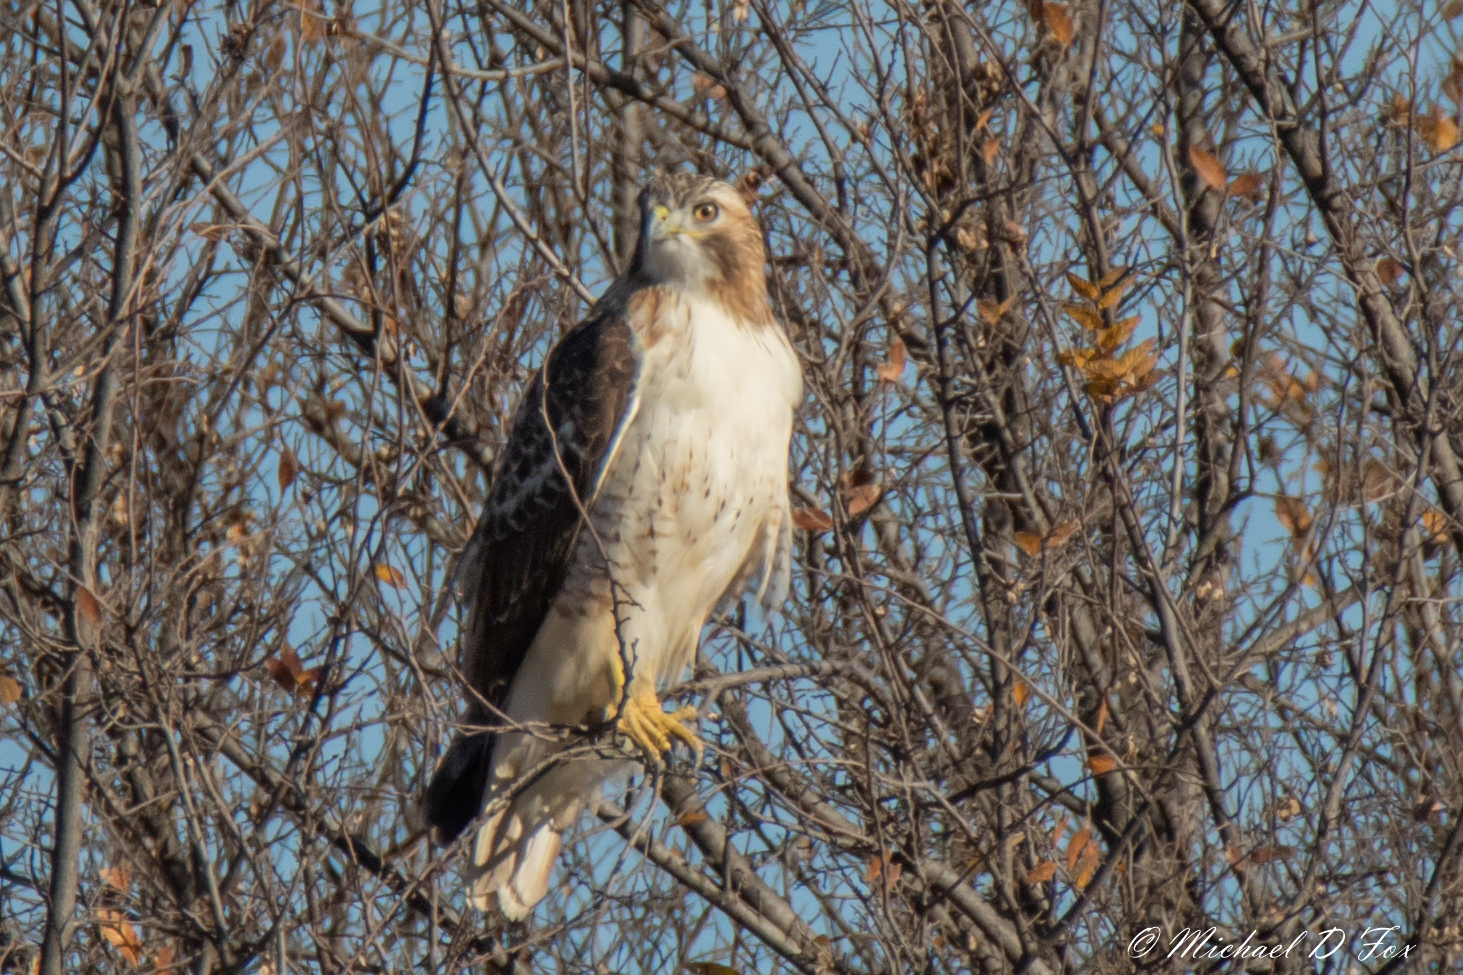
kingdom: Animalia
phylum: Chordata
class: Aves
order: Accipitriformes
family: Accipitridae
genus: Buteo
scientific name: Buteo jamaicensis
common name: Red-tailed hawk
